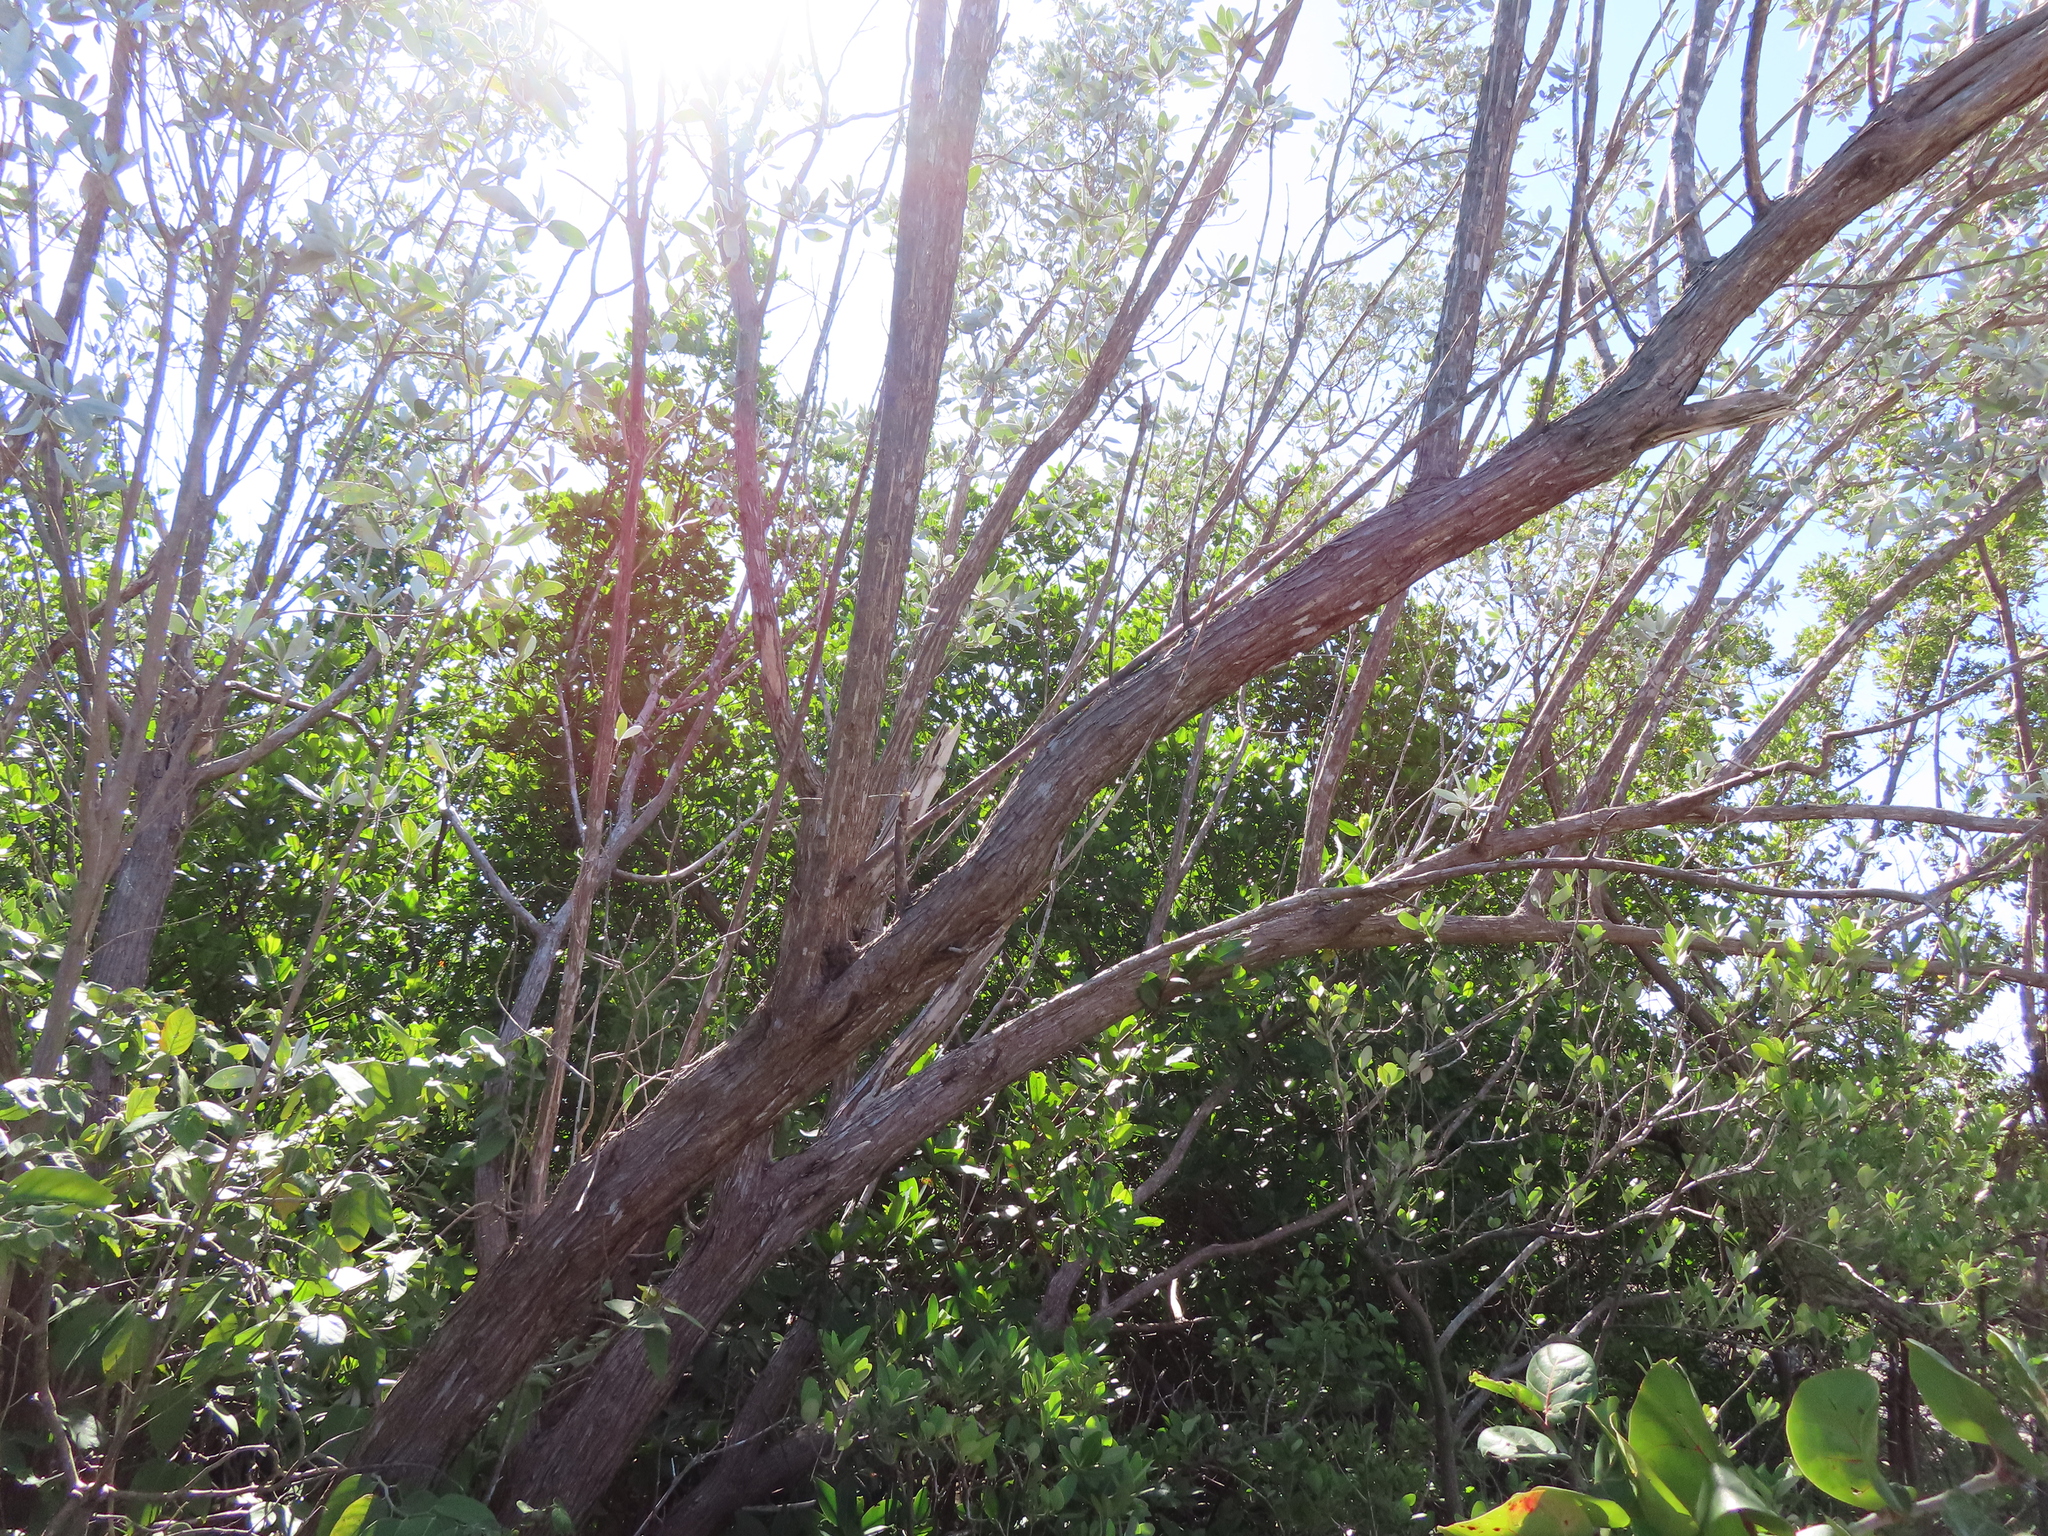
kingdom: Plantae
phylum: Tracheophyta
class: Magnoliopsida
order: Myrtales
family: Combretaceae
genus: Conocarpus
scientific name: Conocarpus erectus
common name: Button mangrove
